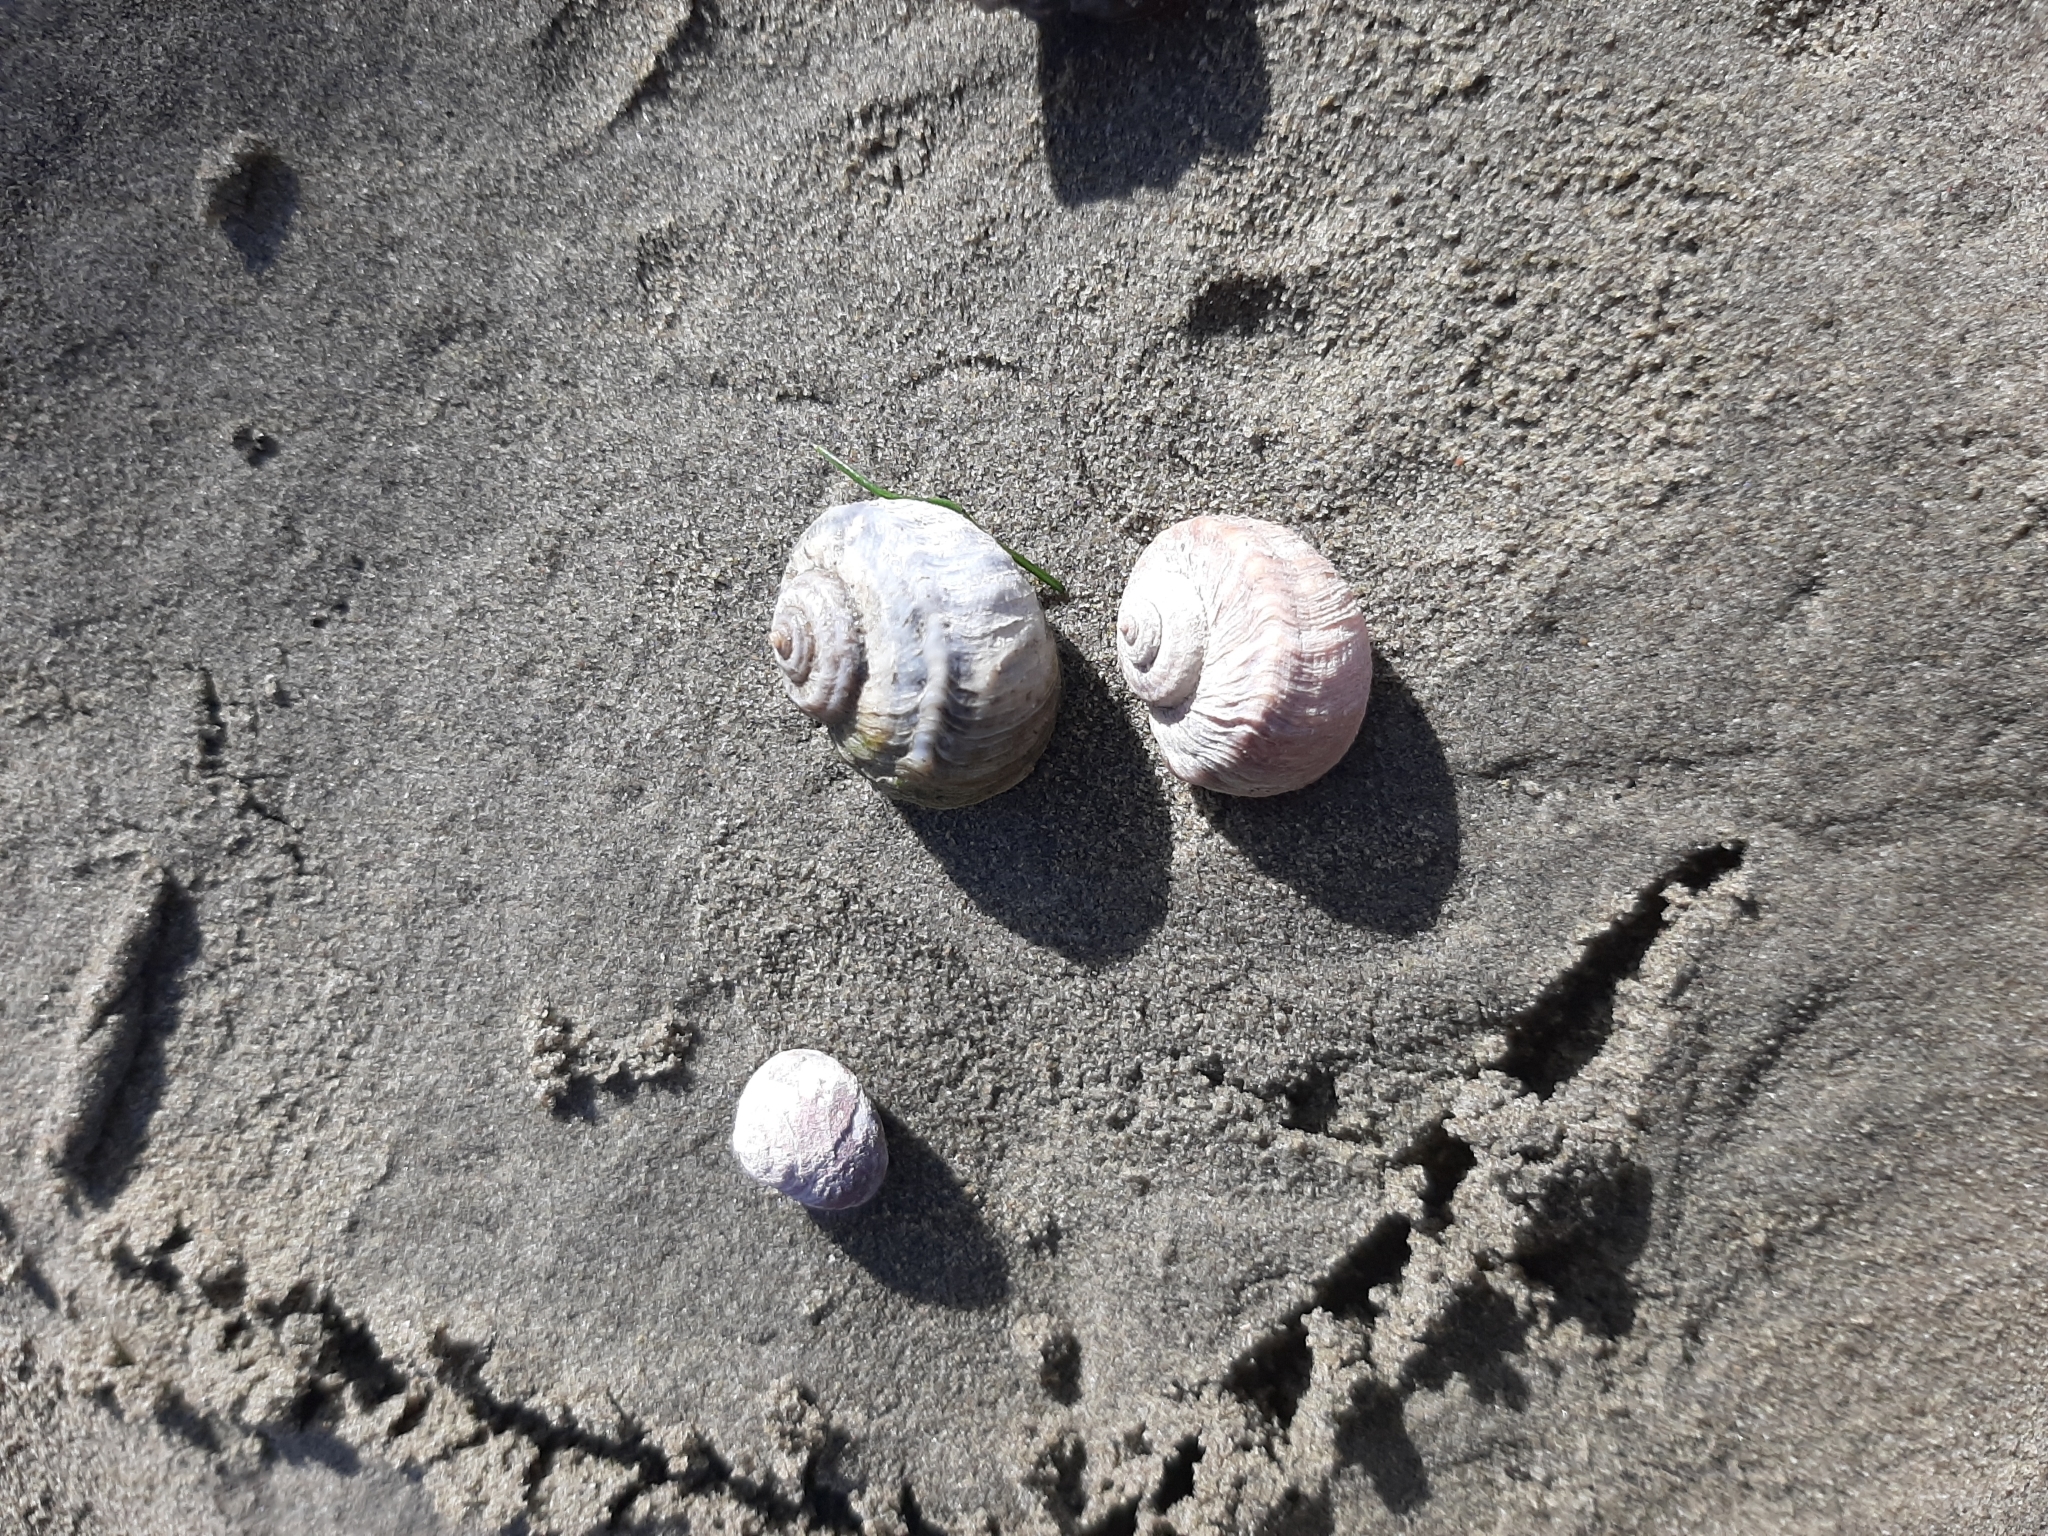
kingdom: Animalia
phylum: Mollusca
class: Gastropoda
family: Amphibolidae
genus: Amphibola
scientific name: Amphibola crenata
